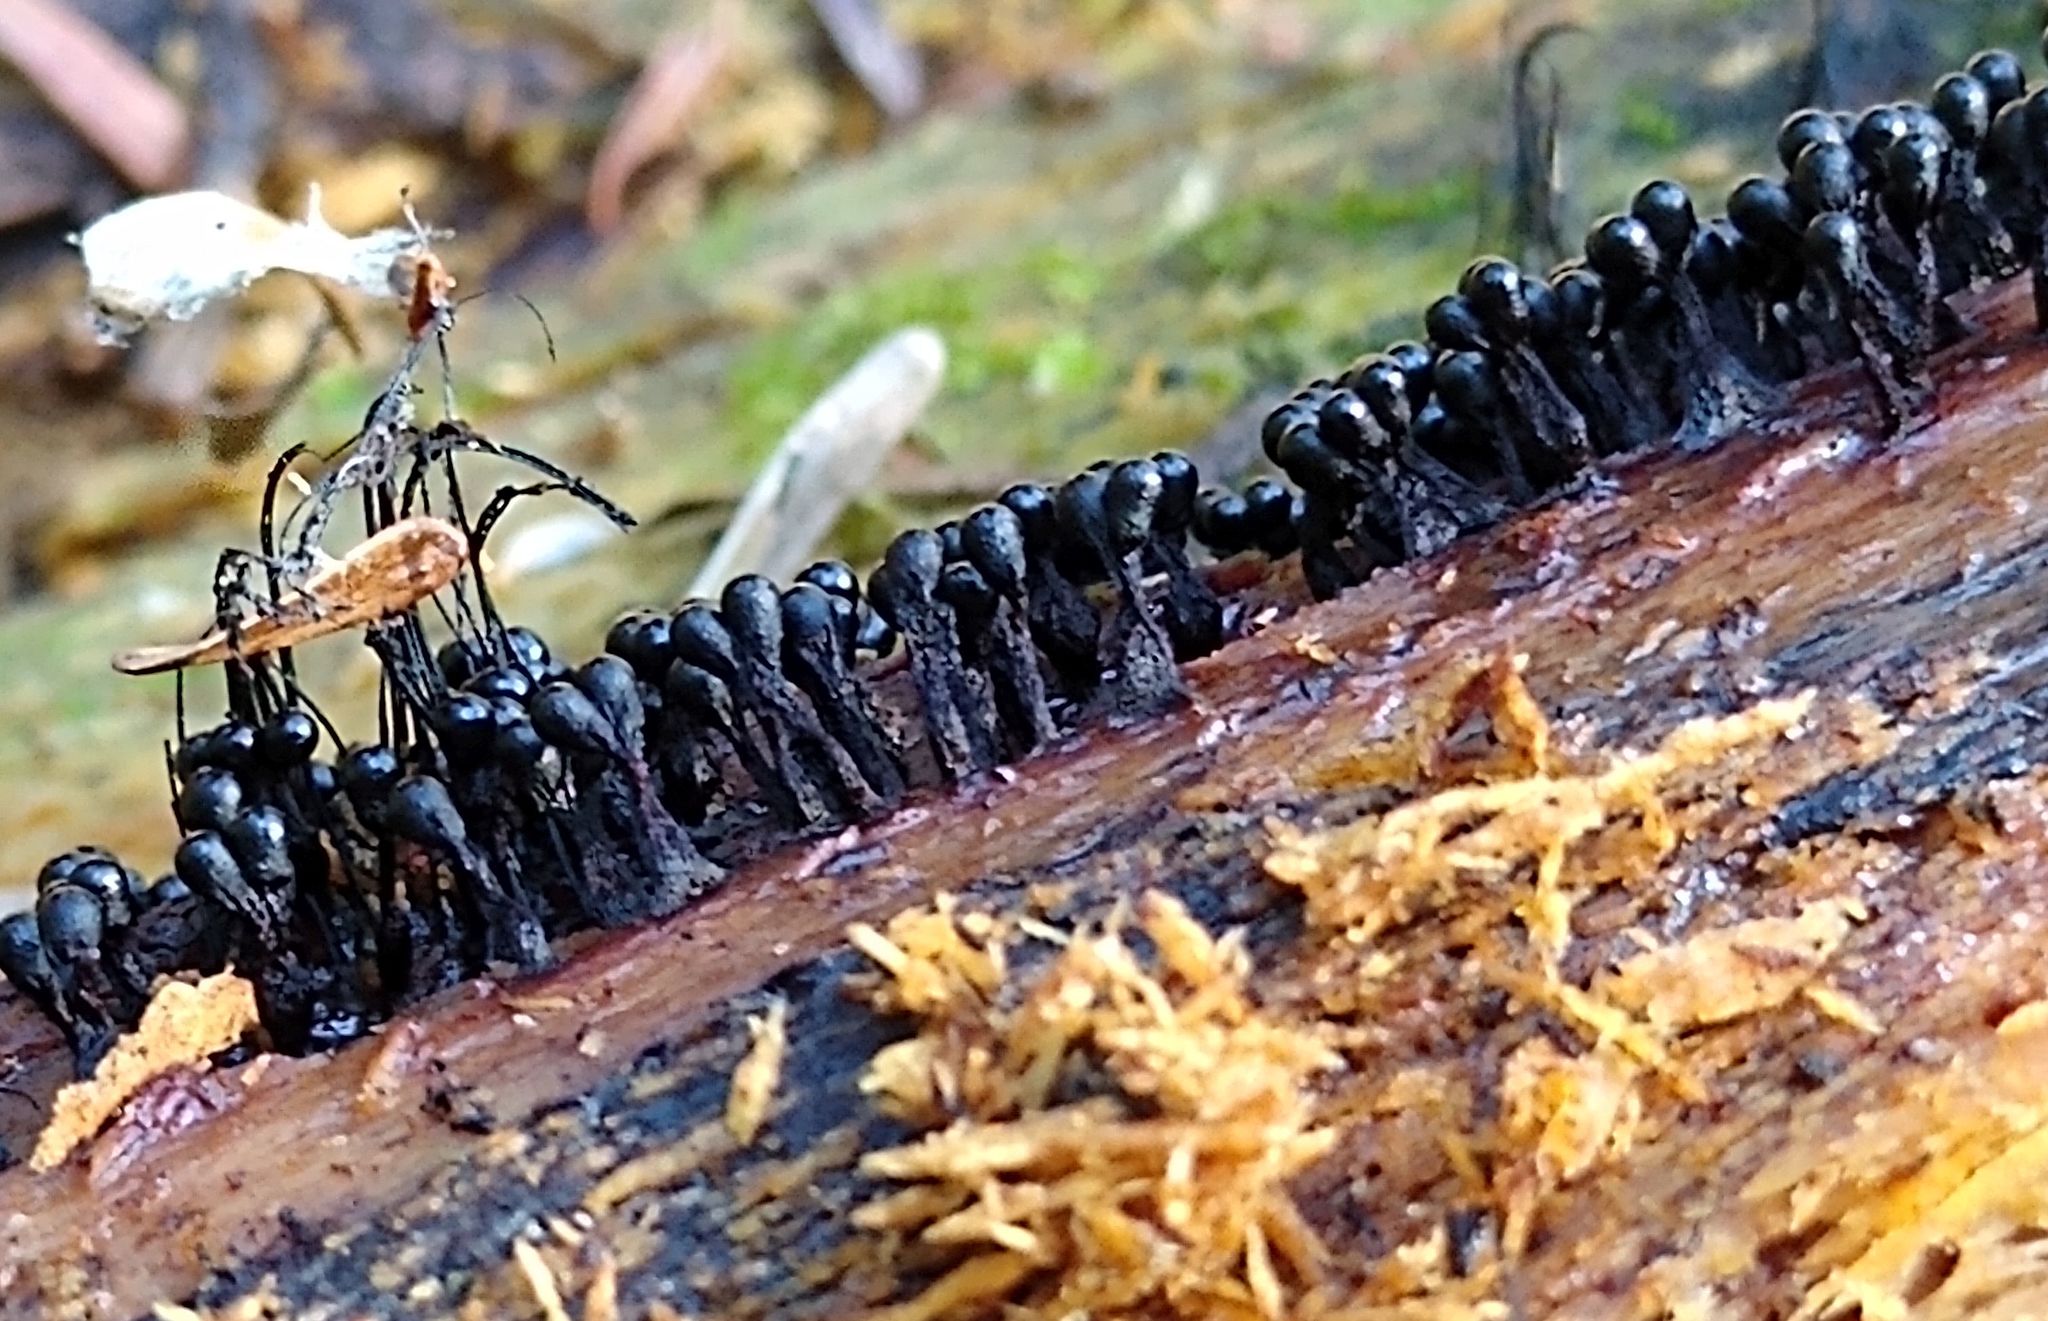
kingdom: Protozoa
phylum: Mycetozoa
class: Myxomycetes
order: Trichiales
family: Trichiaceae
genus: Metatrichia
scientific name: Metatrichia floriformis
